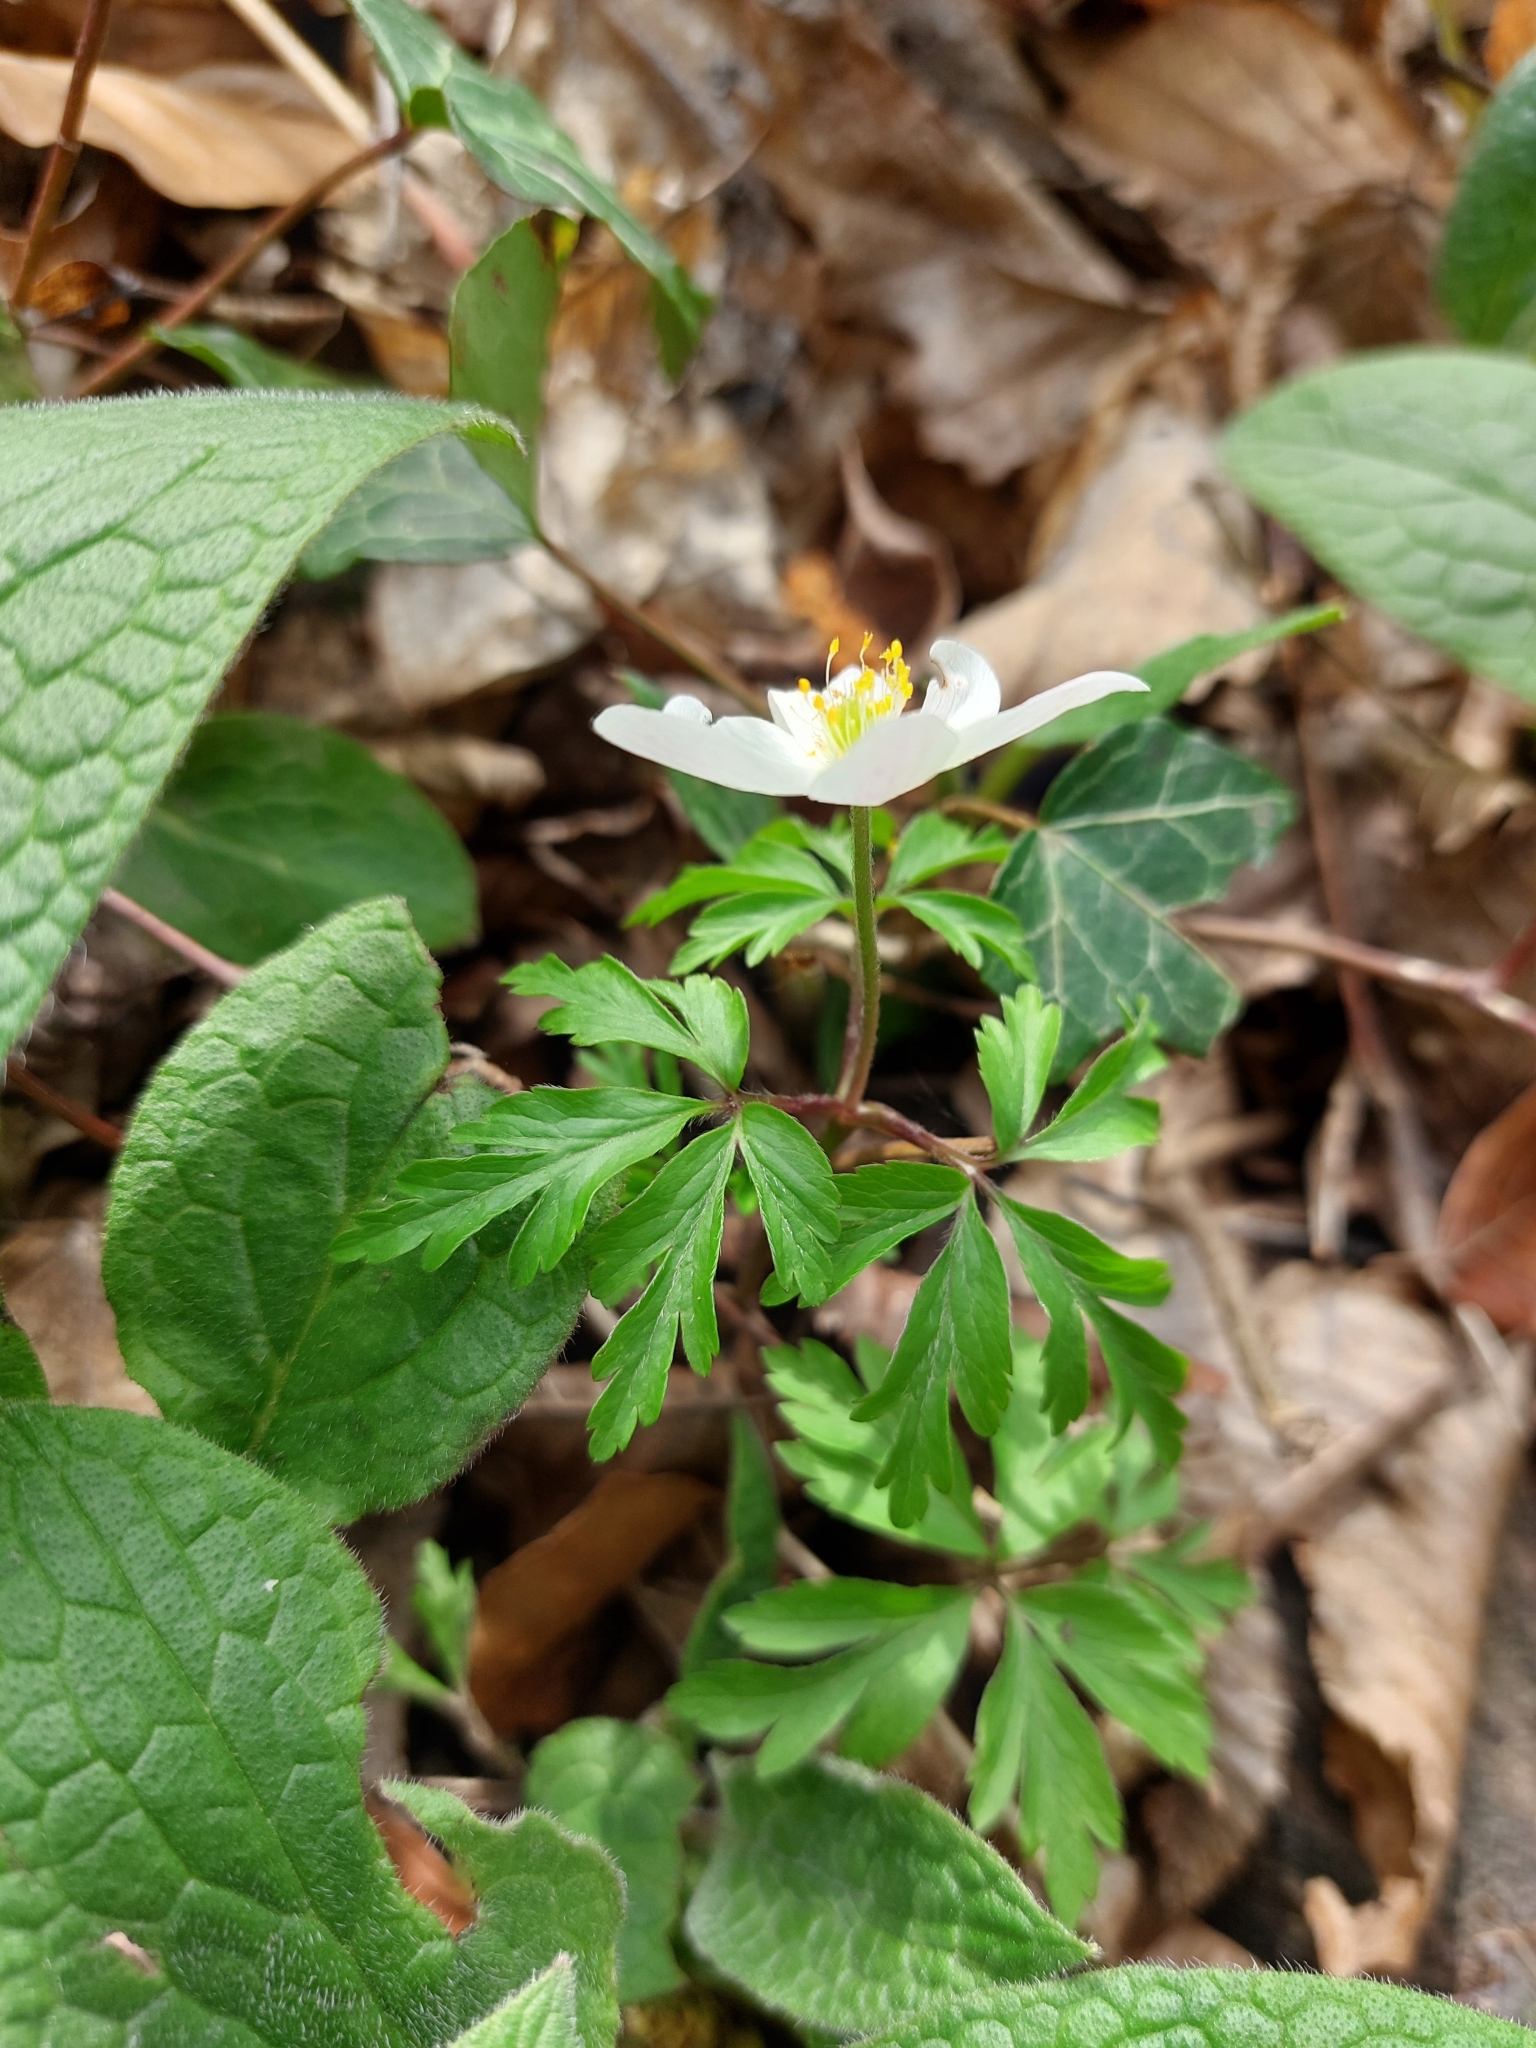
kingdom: Plantae
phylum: Tracheophyta
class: Magnoliopsida
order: Ranunculales
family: Ranunculaceae
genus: Anemone
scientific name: Anemone nemorosa
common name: Wood anemone
